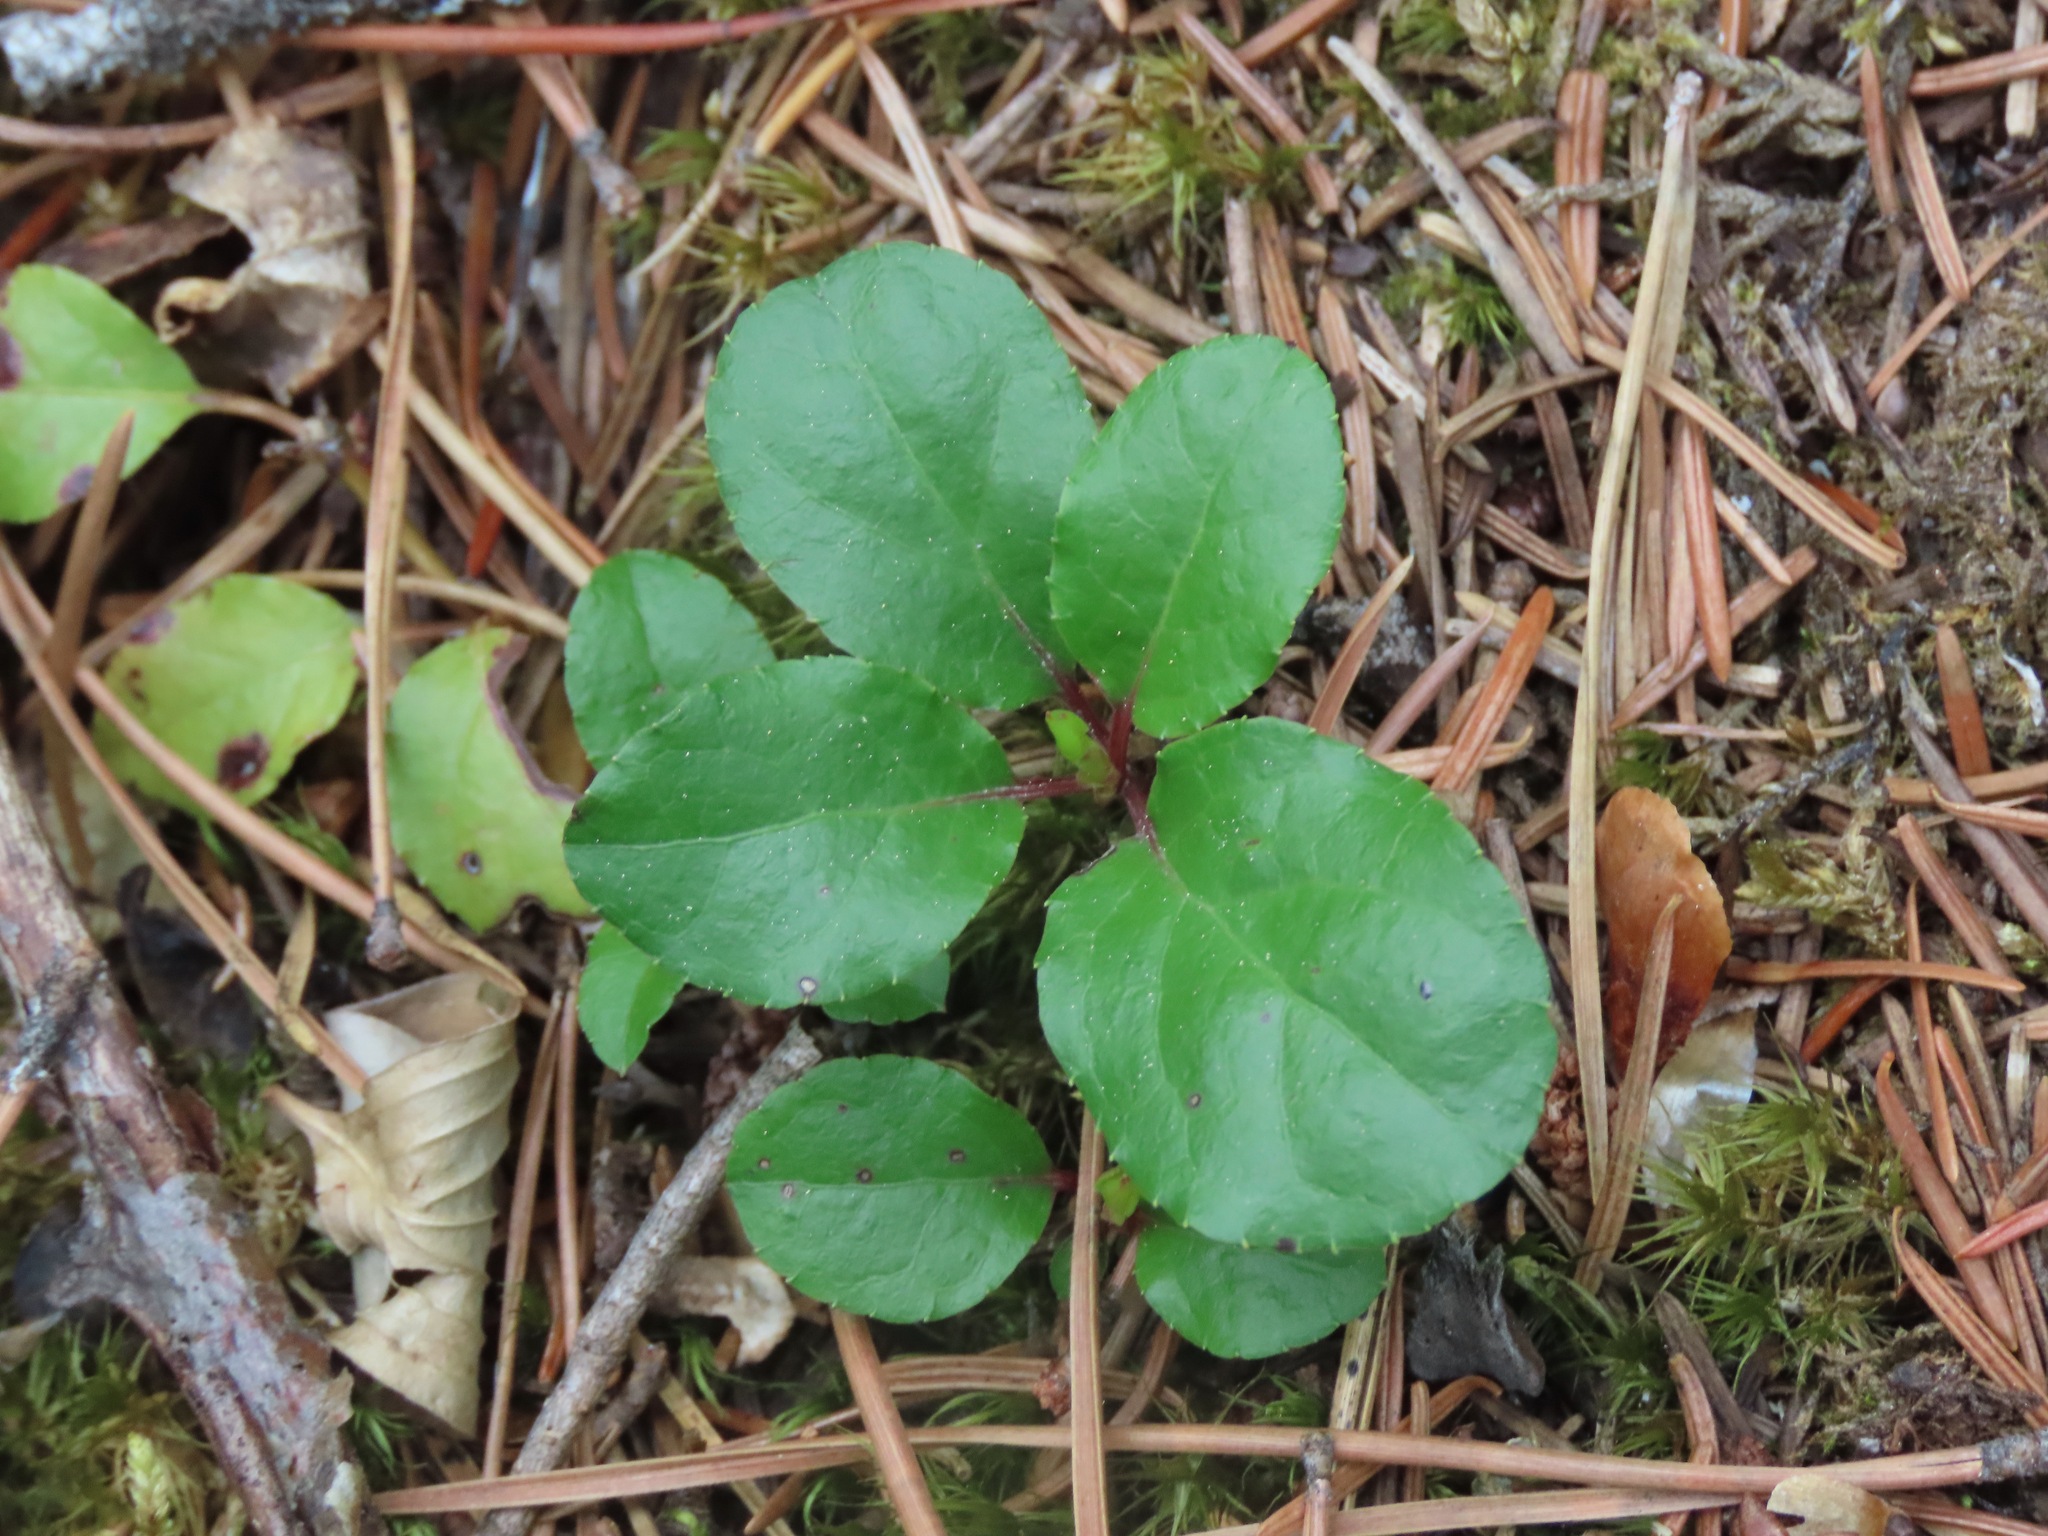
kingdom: Plantae
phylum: Tracheophyta
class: Magnoliopsida
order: Ericales
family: Ericaceae
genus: Orthilia
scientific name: Orthilia secunda
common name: One-sided orthilia
